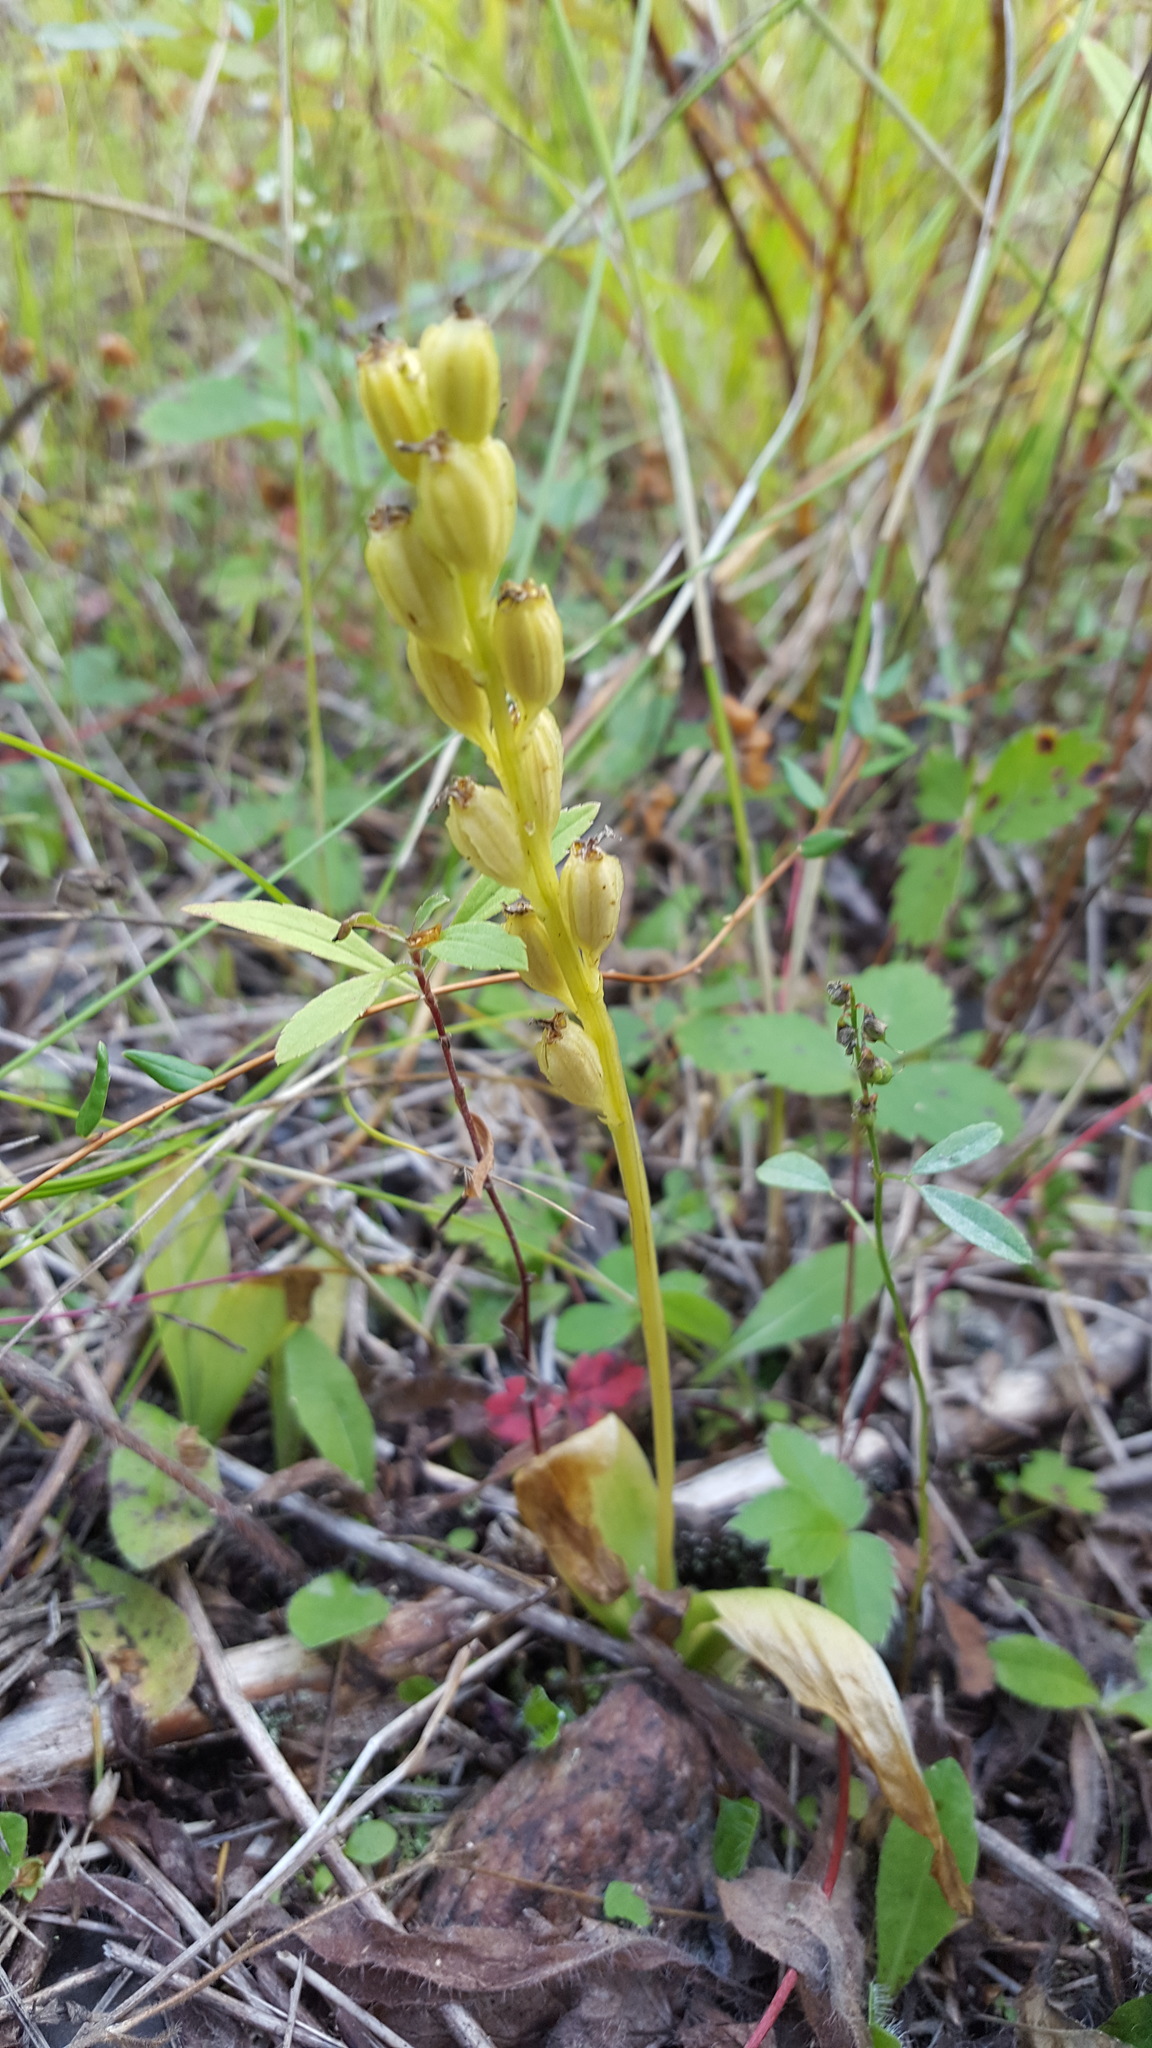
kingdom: Animalia
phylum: Arthropoda
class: Insecta
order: Coleoptera
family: Curculionidae
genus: Liparis
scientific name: Liparis loeselii
